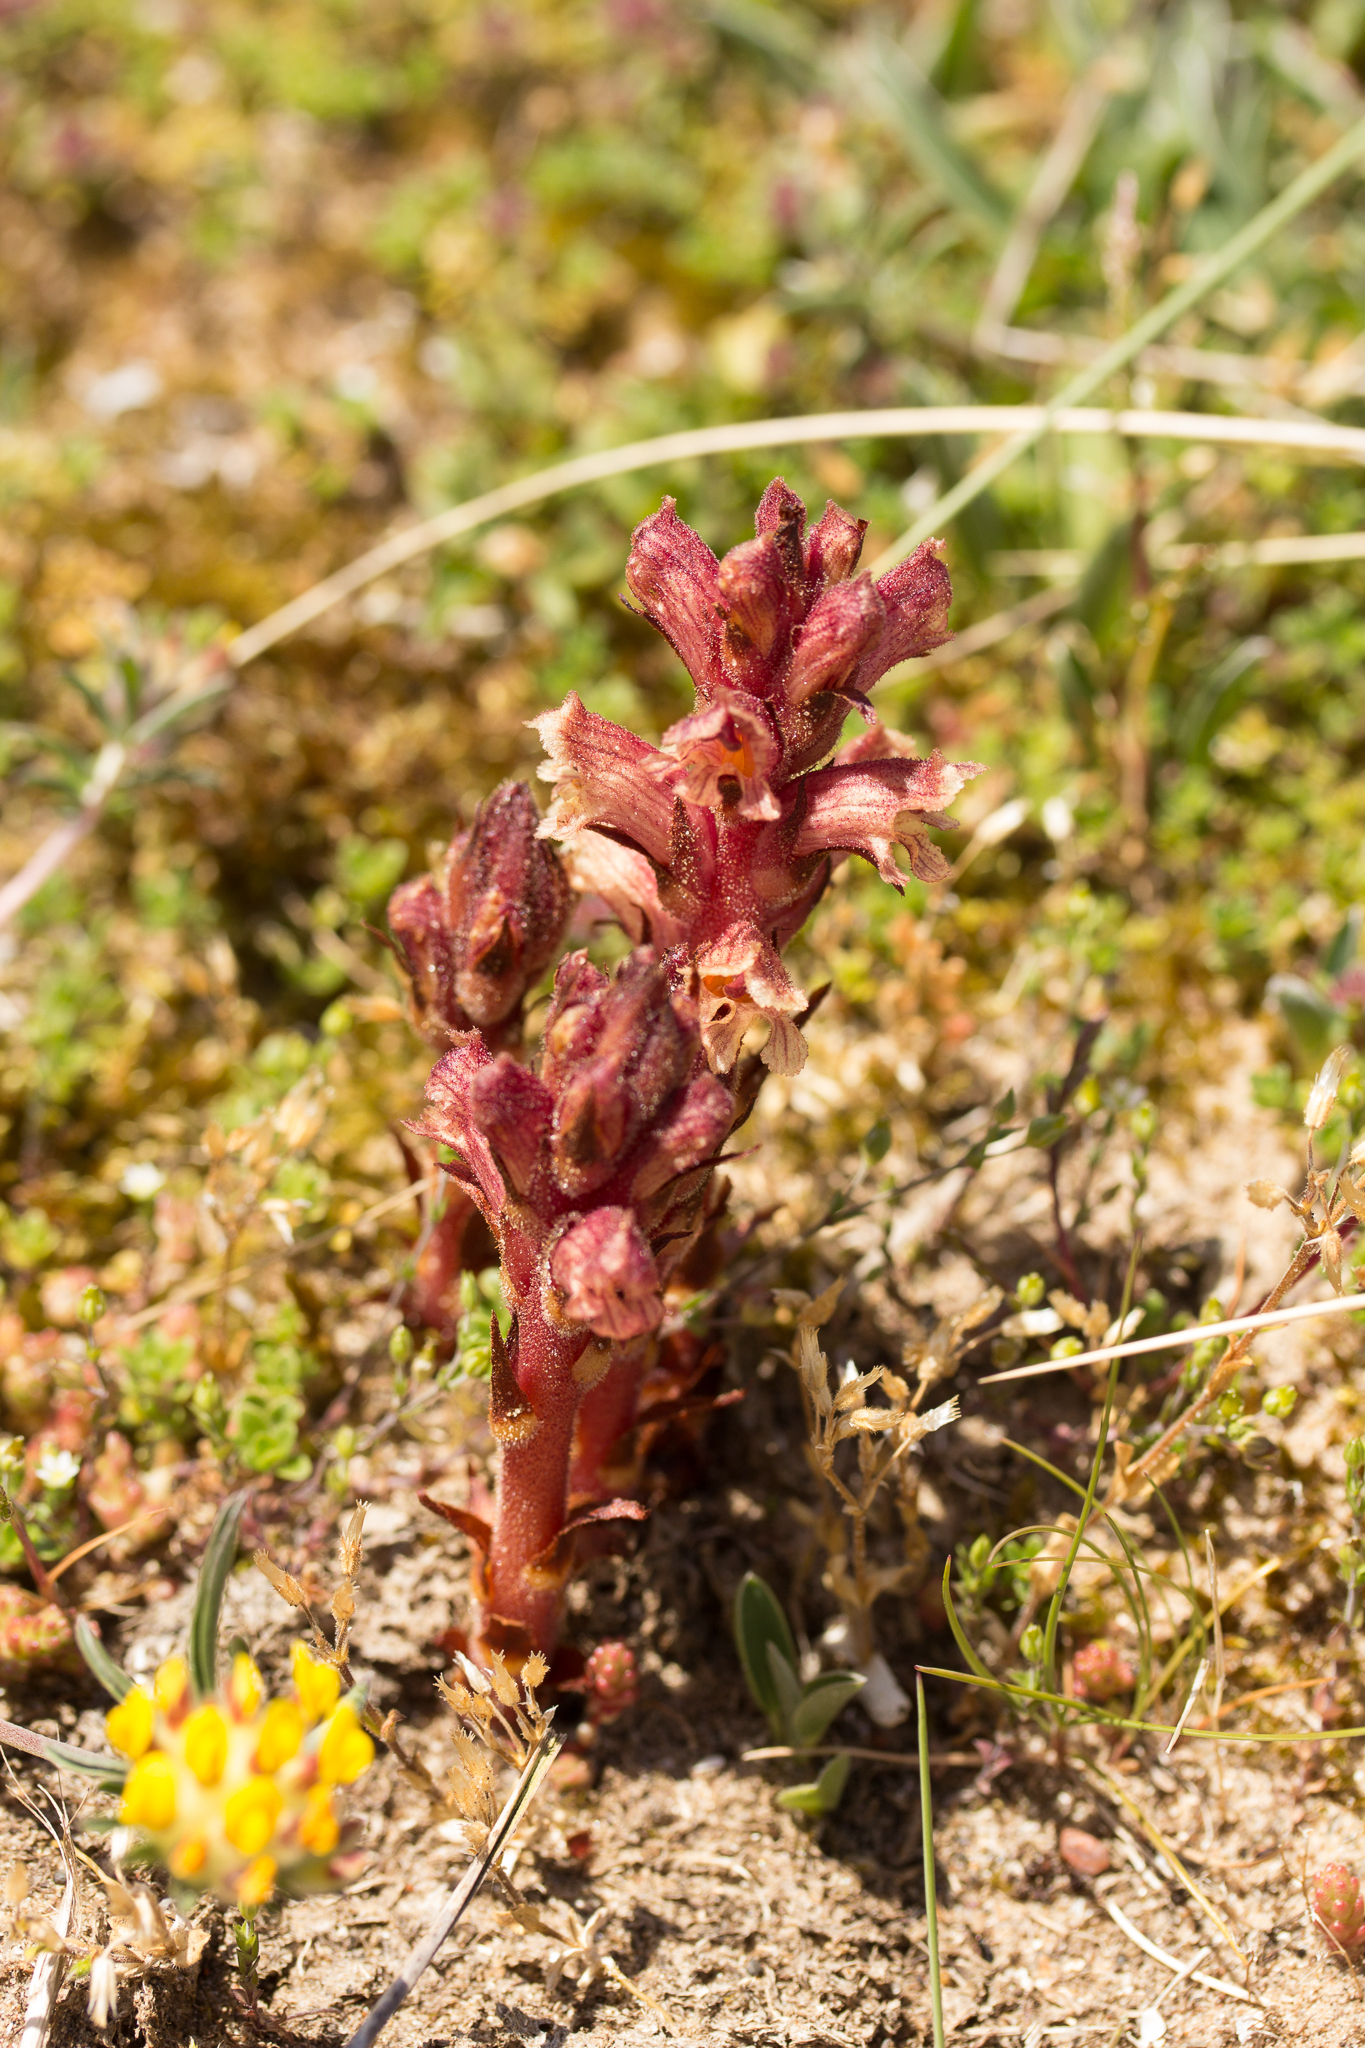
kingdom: Plantae
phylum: Tracheophyta
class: Magnoliopsida
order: Lamiales
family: Orobanchaceae
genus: Orobanche
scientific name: Orobanche alba
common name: Thyme broomrape
